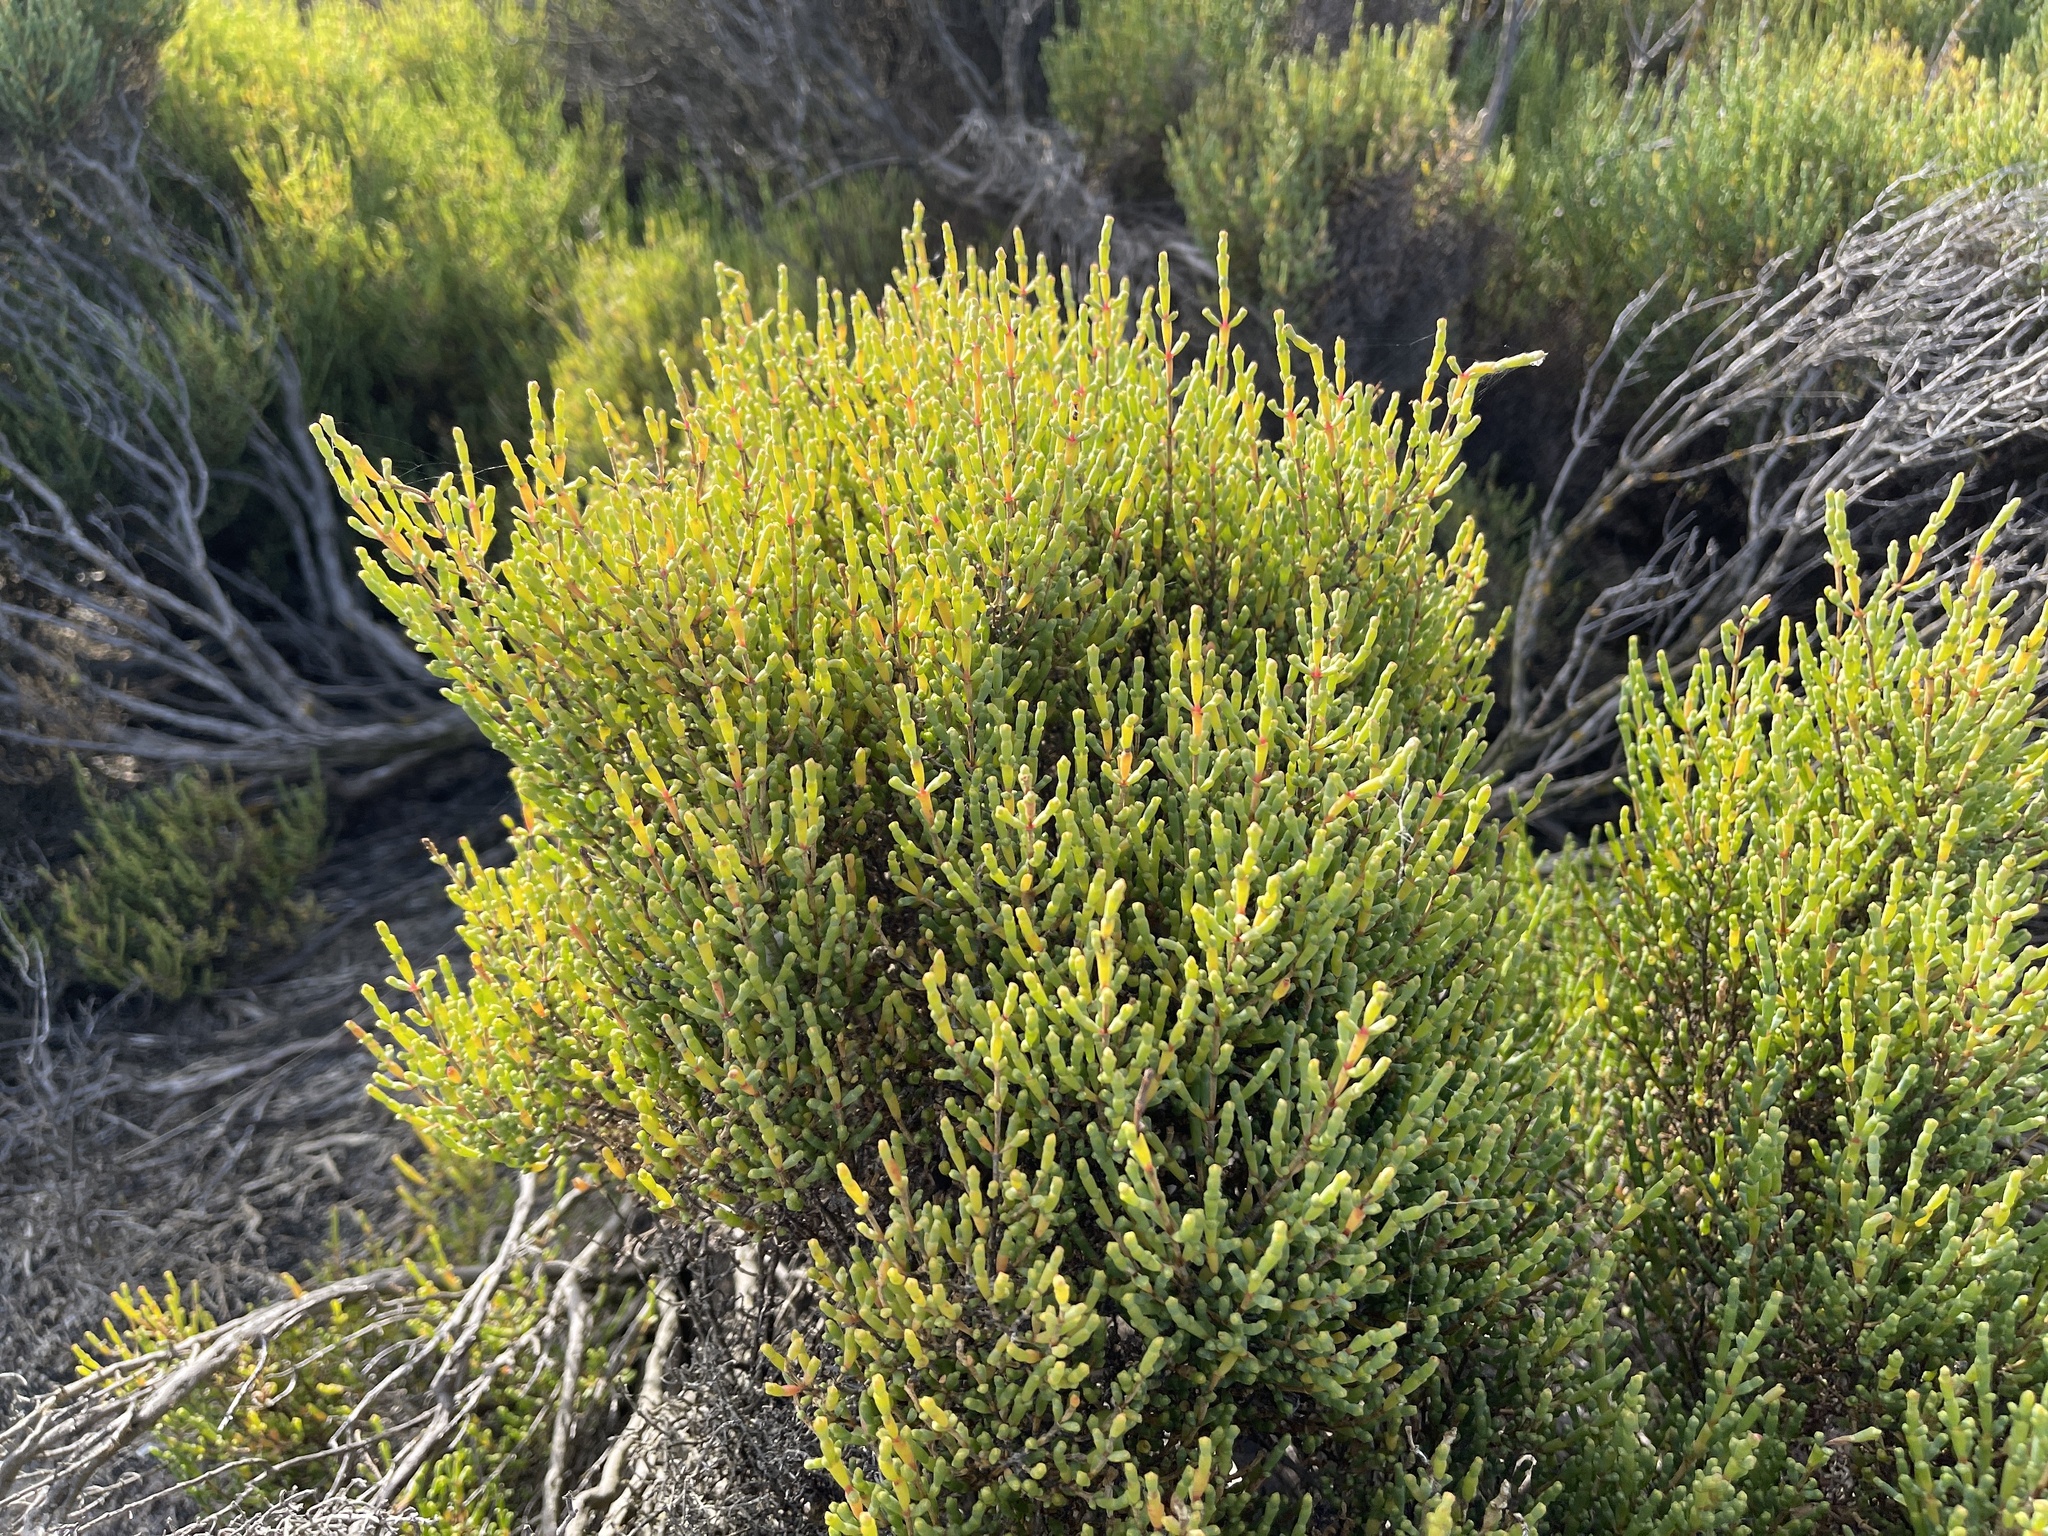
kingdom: Plantae
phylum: Tracheophyta
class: Magnoliopsida
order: Caryophyllales
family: Amaranthaceae
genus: Tecticornia
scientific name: Tecticornia arbuscula
